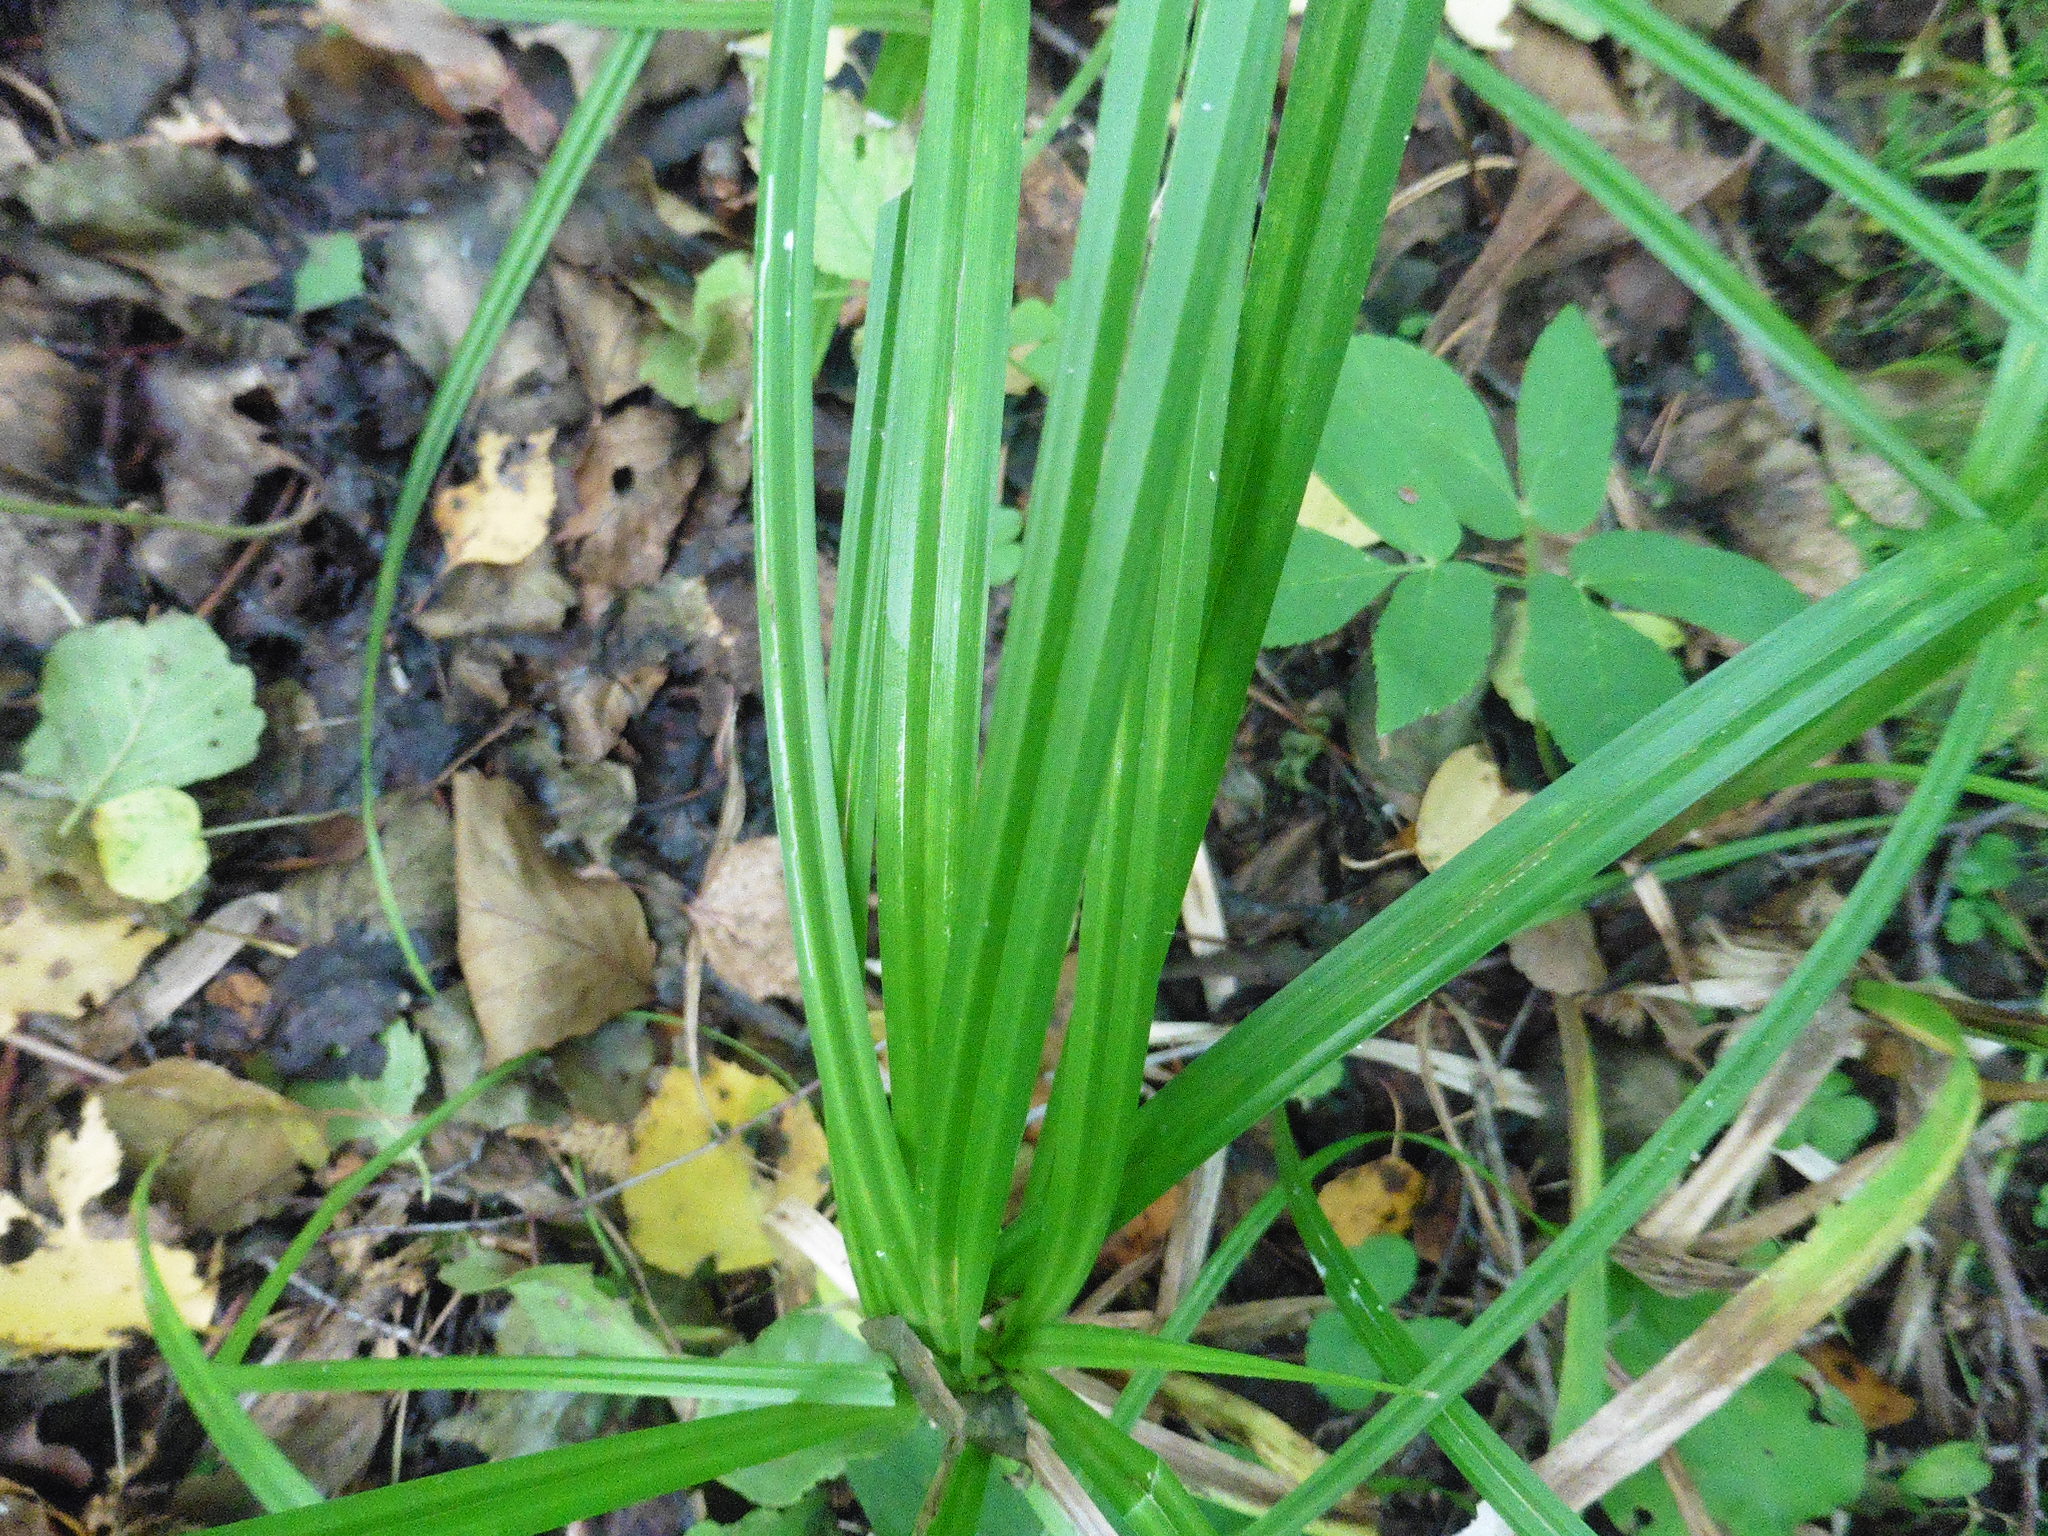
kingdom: Plantae
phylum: Tracheophyta
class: Liliopsida
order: Poales
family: Cyperaceae
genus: Carex
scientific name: Carex pilosa
